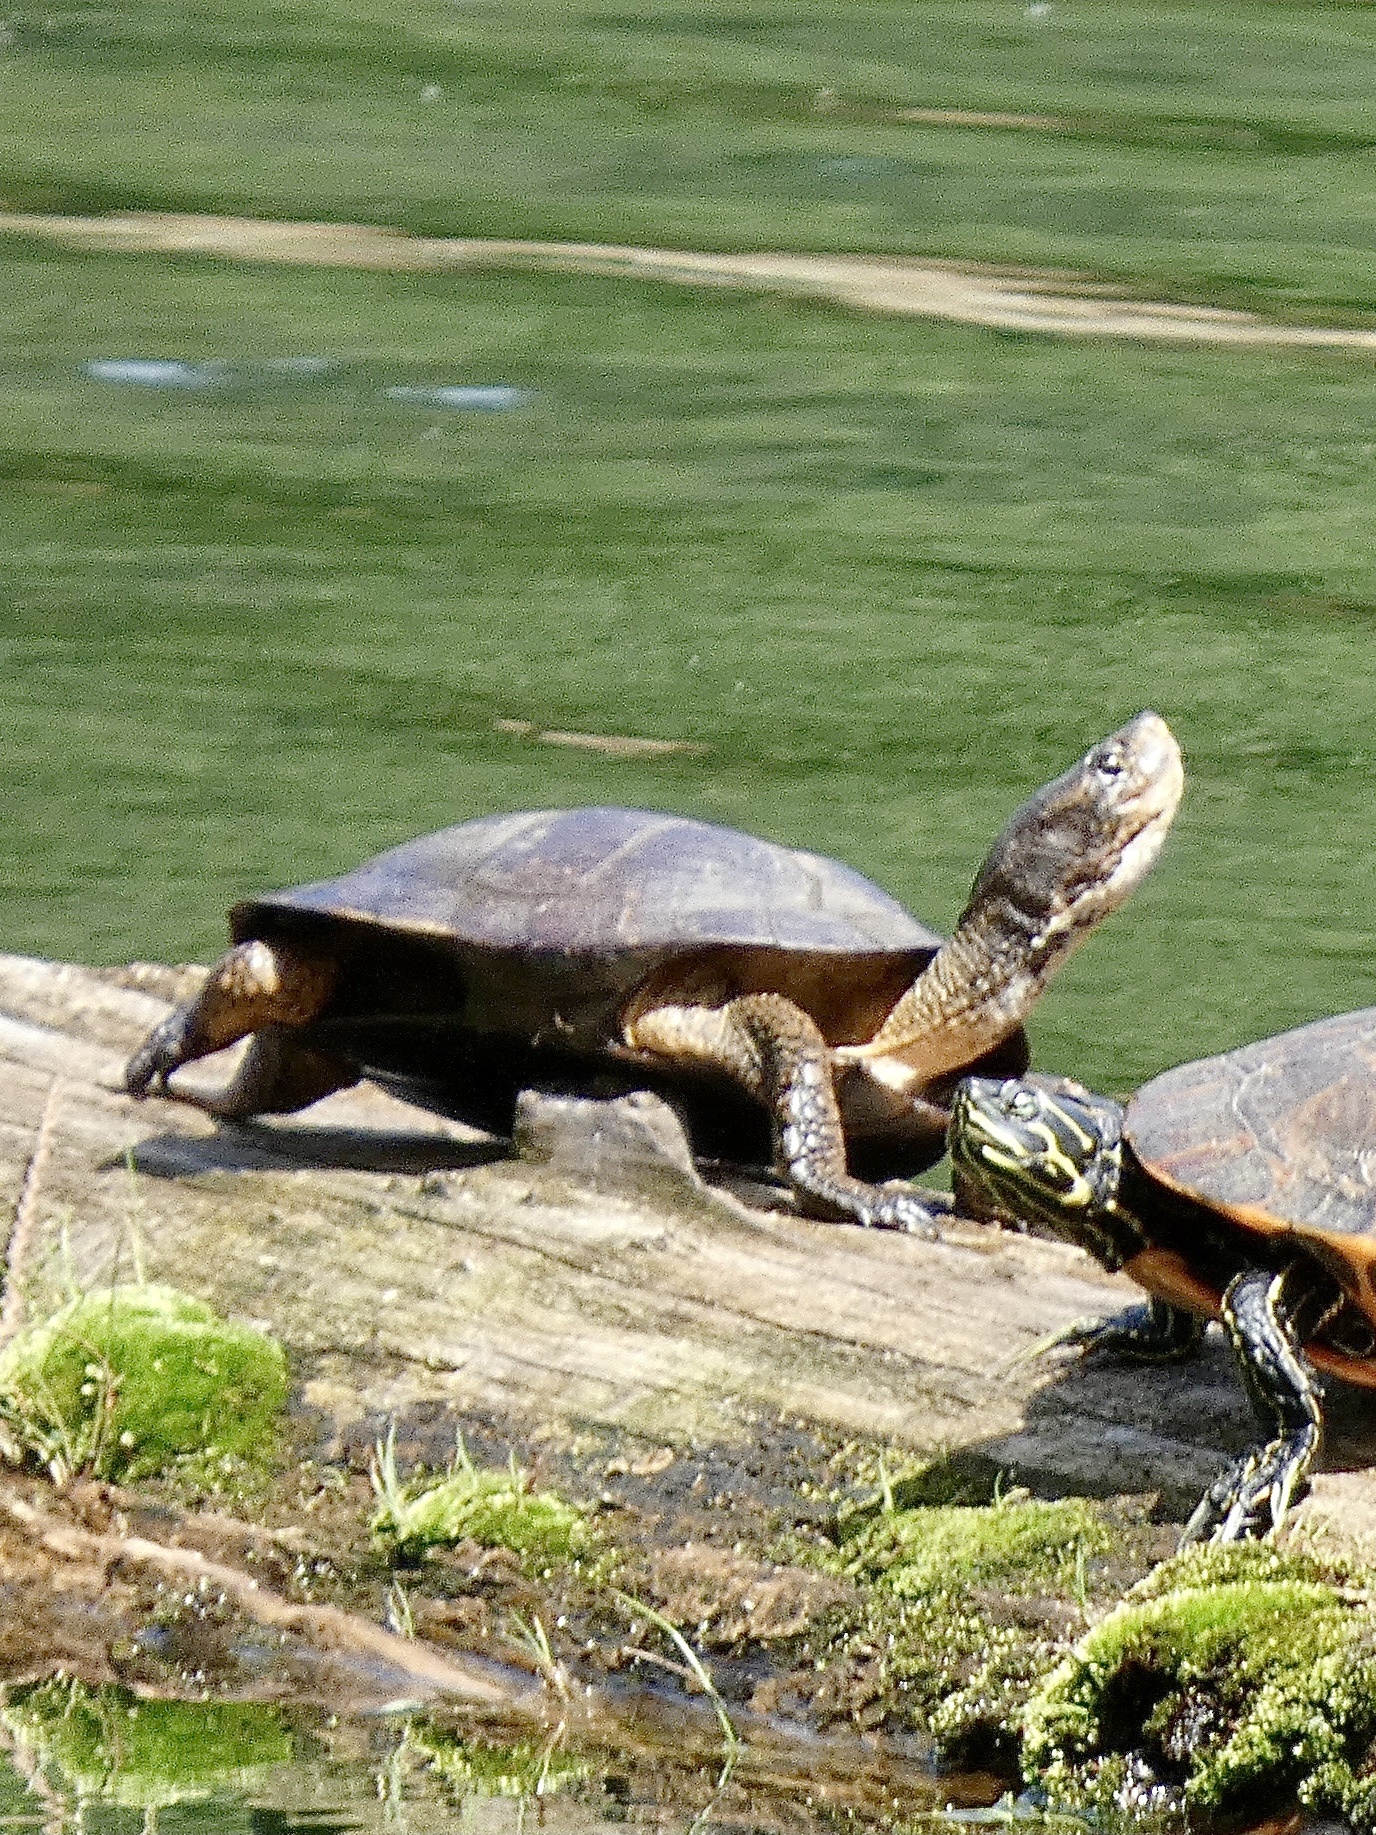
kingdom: Animalia
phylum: Chordata
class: Testudines
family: Emydidae
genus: Actinemys
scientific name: Actinemys marmorata
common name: Western pond turtle
